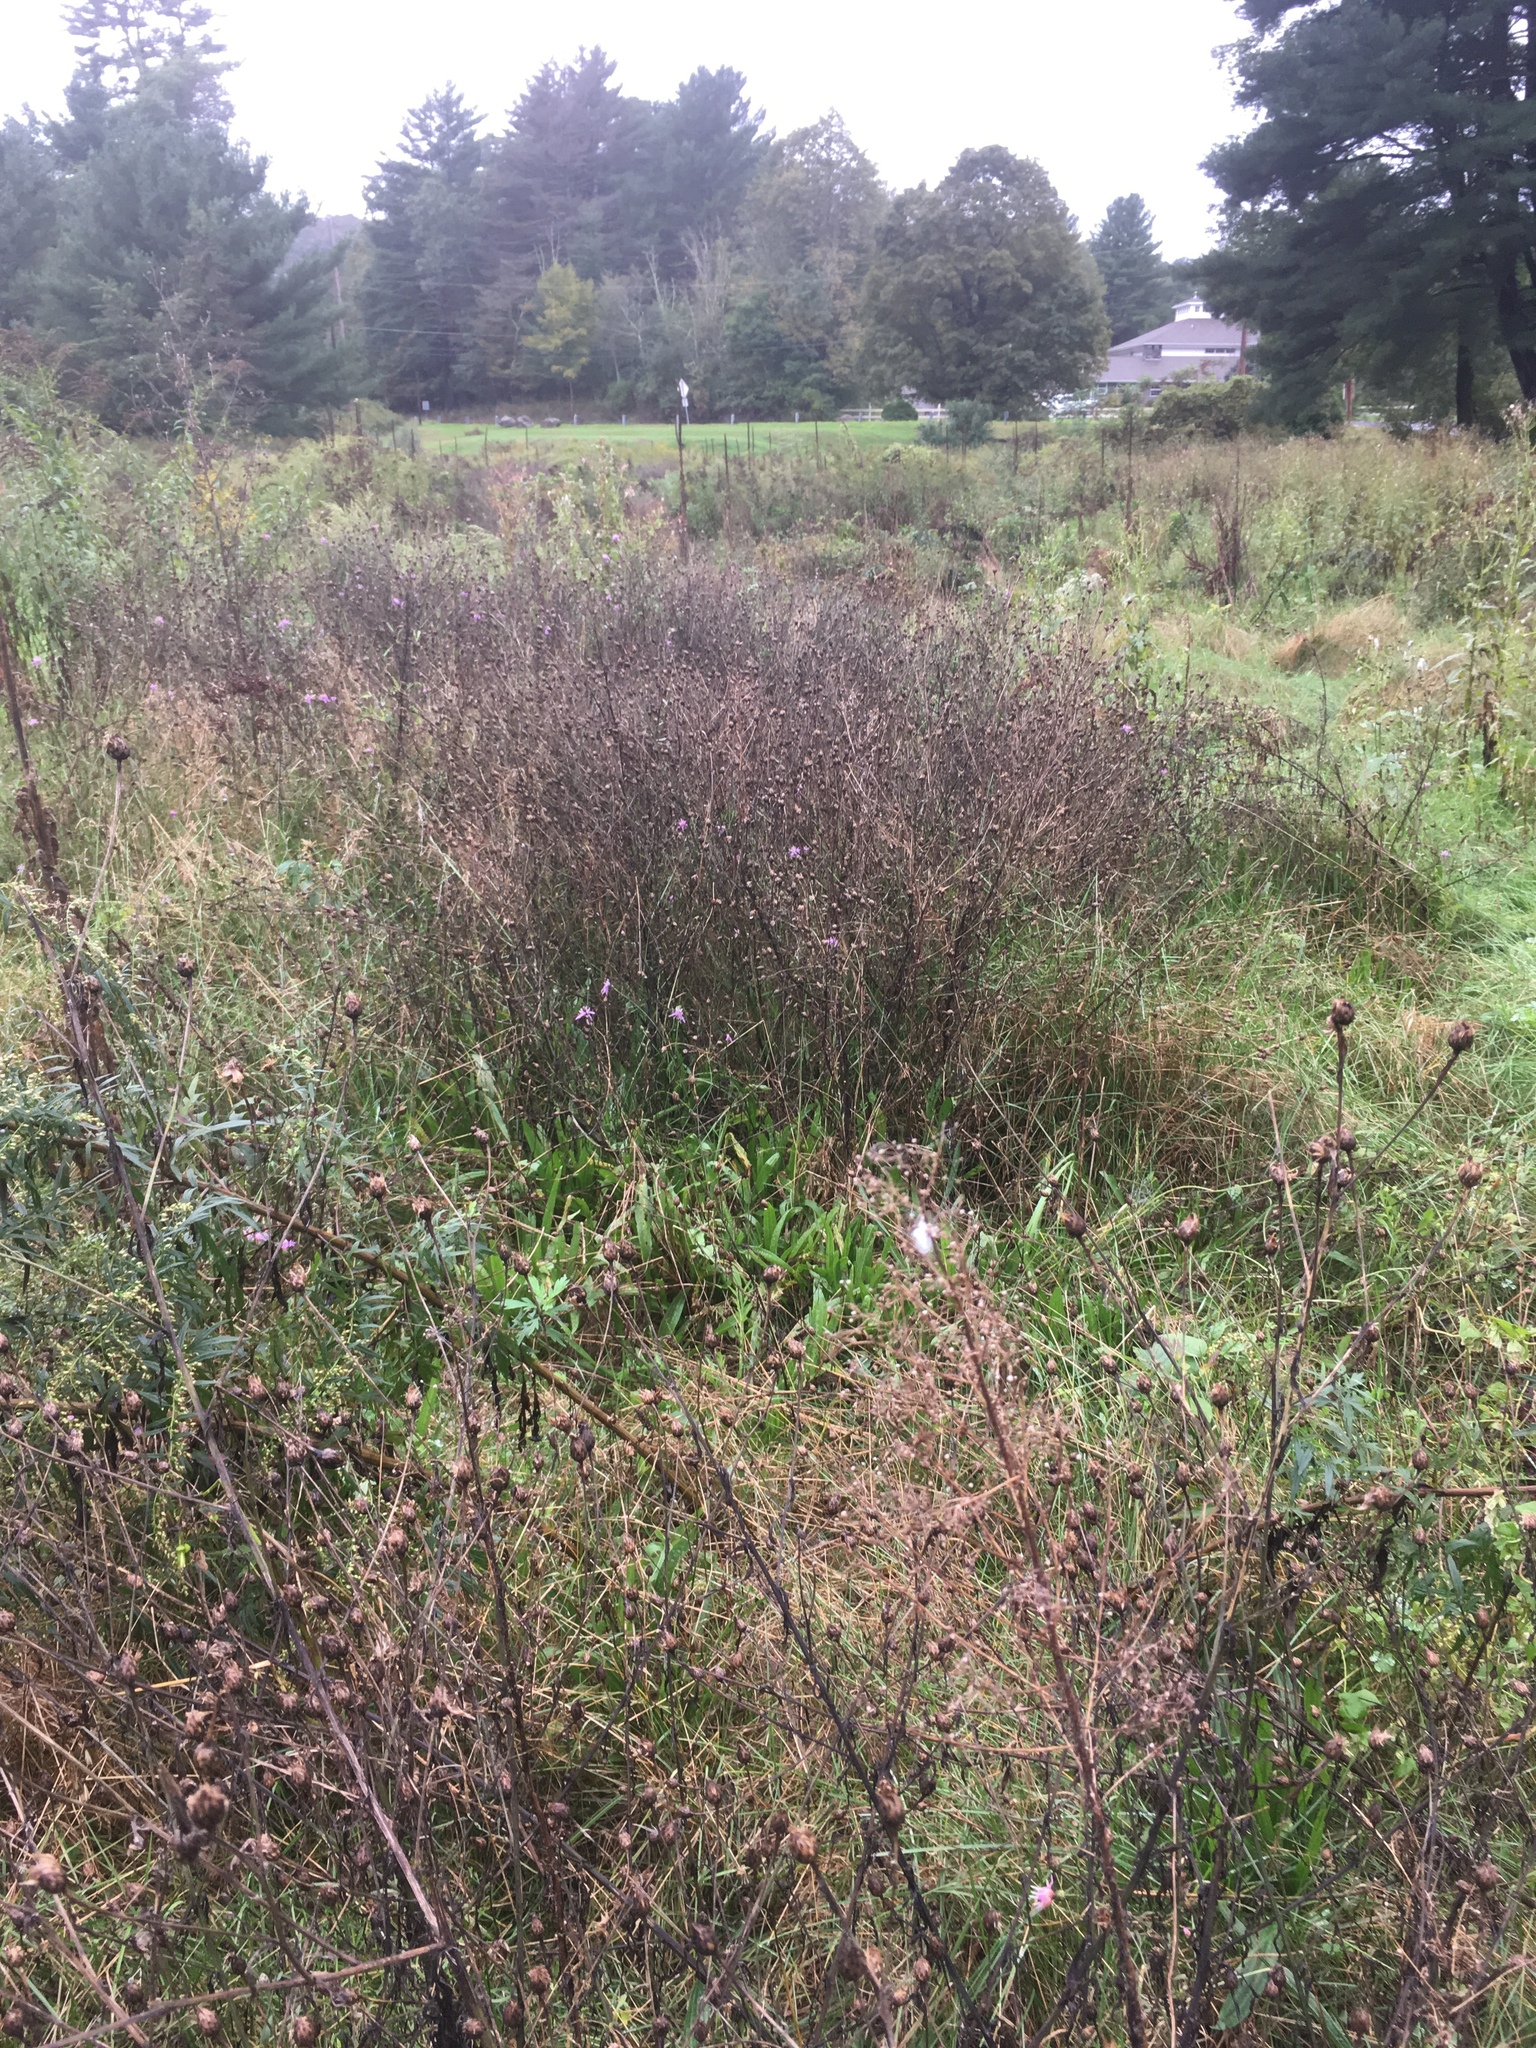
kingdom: Plantae
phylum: Tracheophyta
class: Magnoliopsida
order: Asterales
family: Asteraceae
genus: Centaurea
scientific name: Centaurea stoebe
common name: Spotted knapweed
